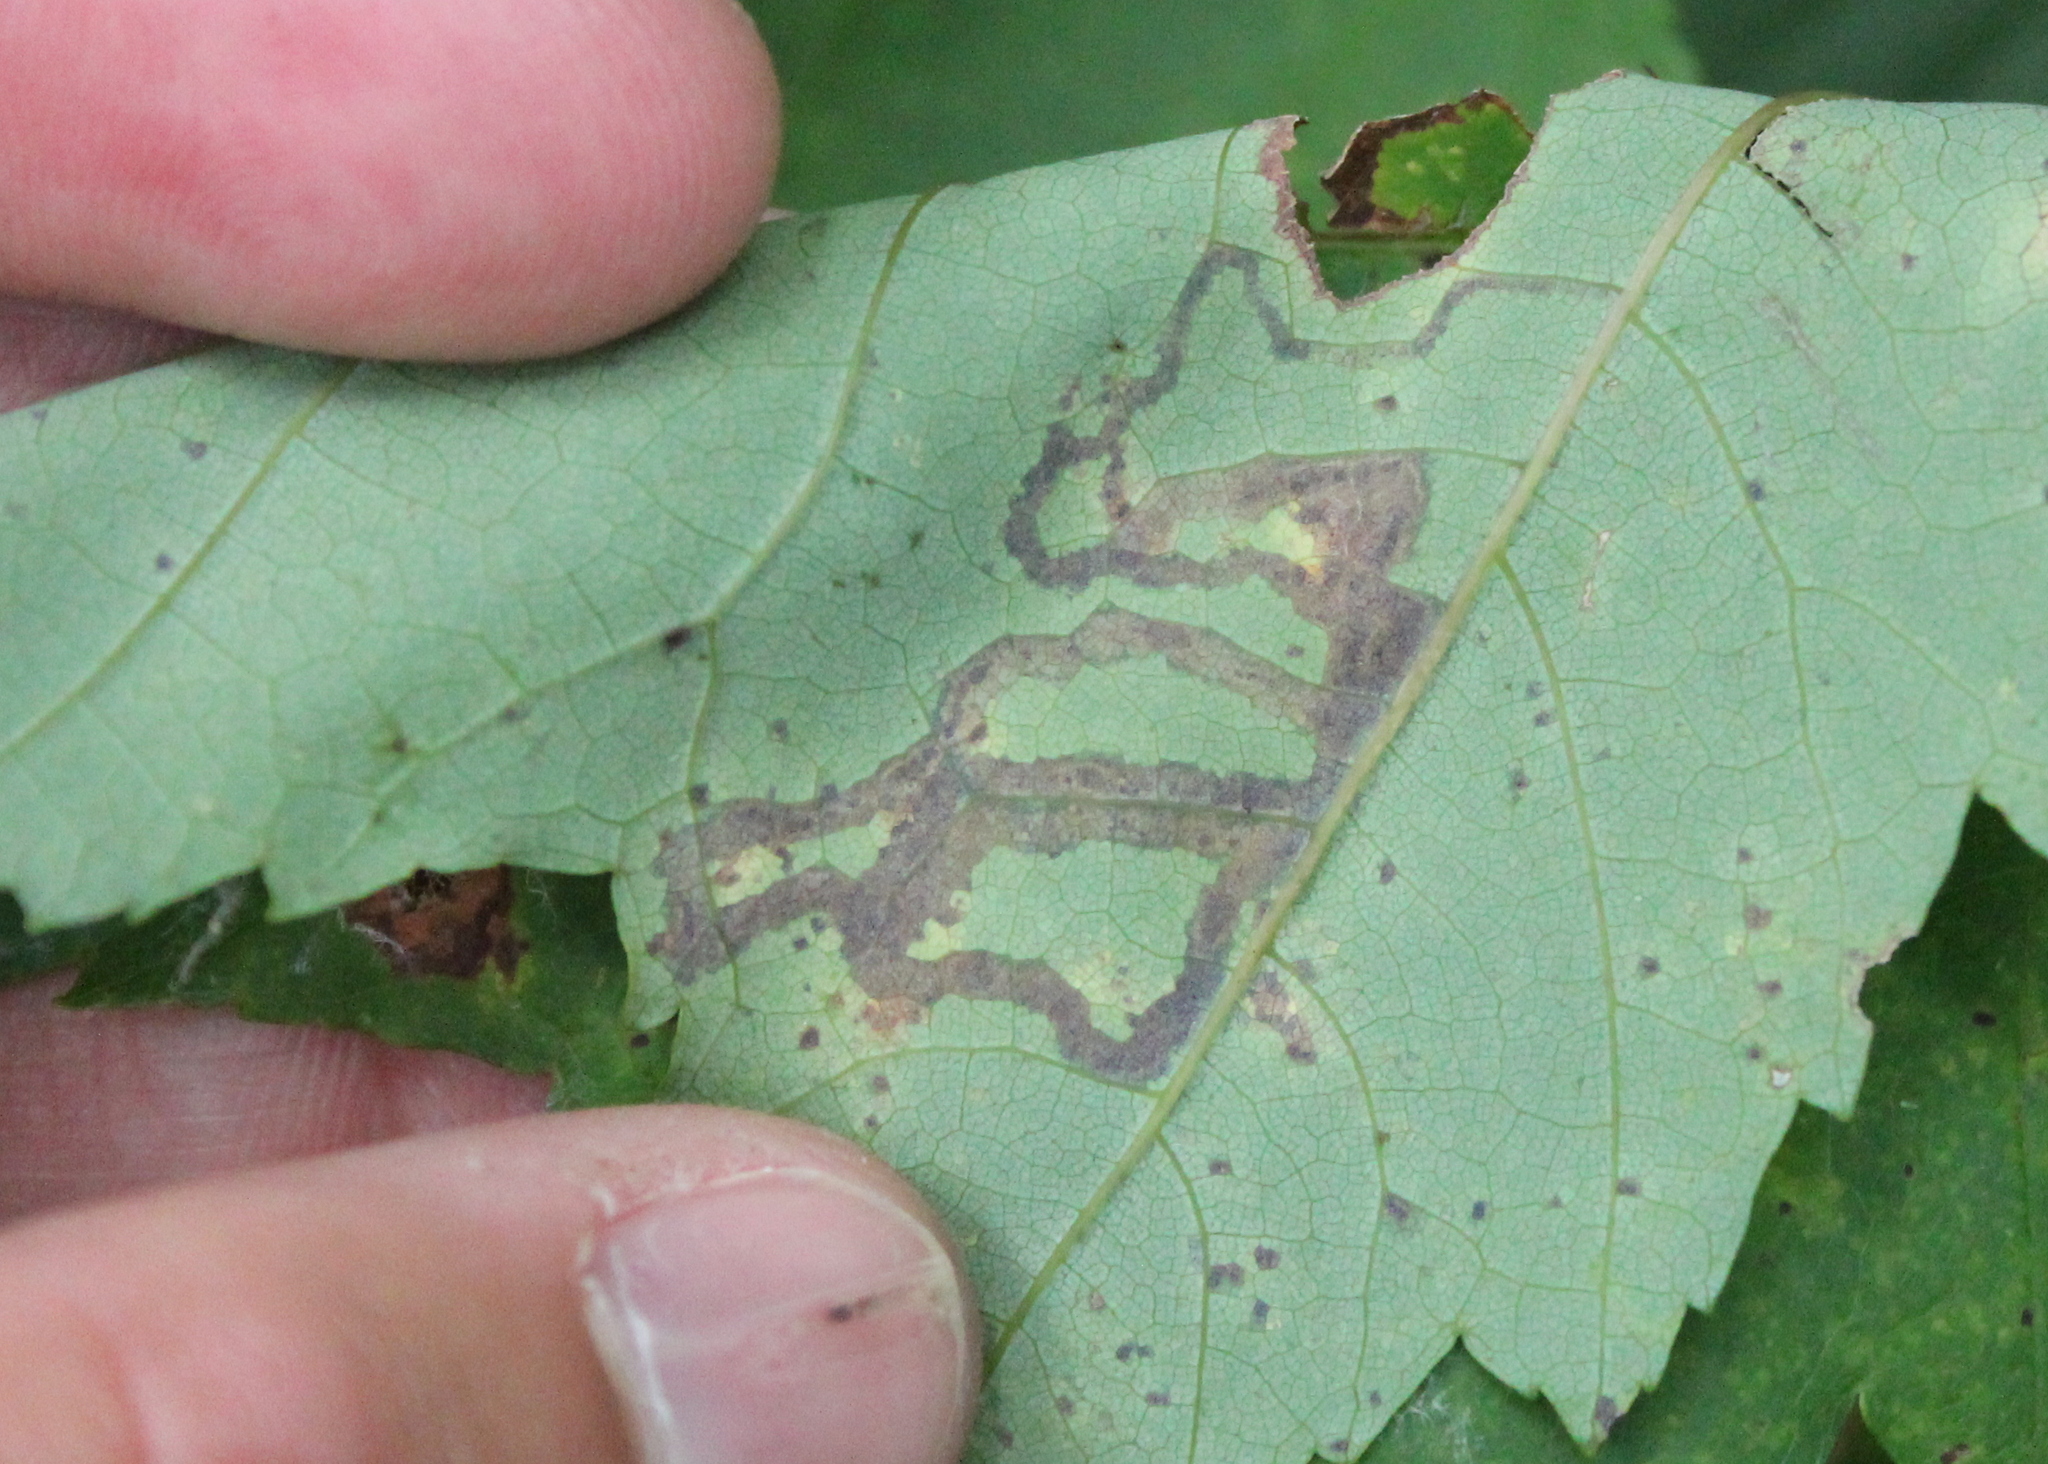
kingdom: Animalia
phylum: Arthropoda
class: Insecta
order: Lepidoptera
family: Nepticulidae
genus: Glaucolepis
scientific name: Glaucolepis saccharella
